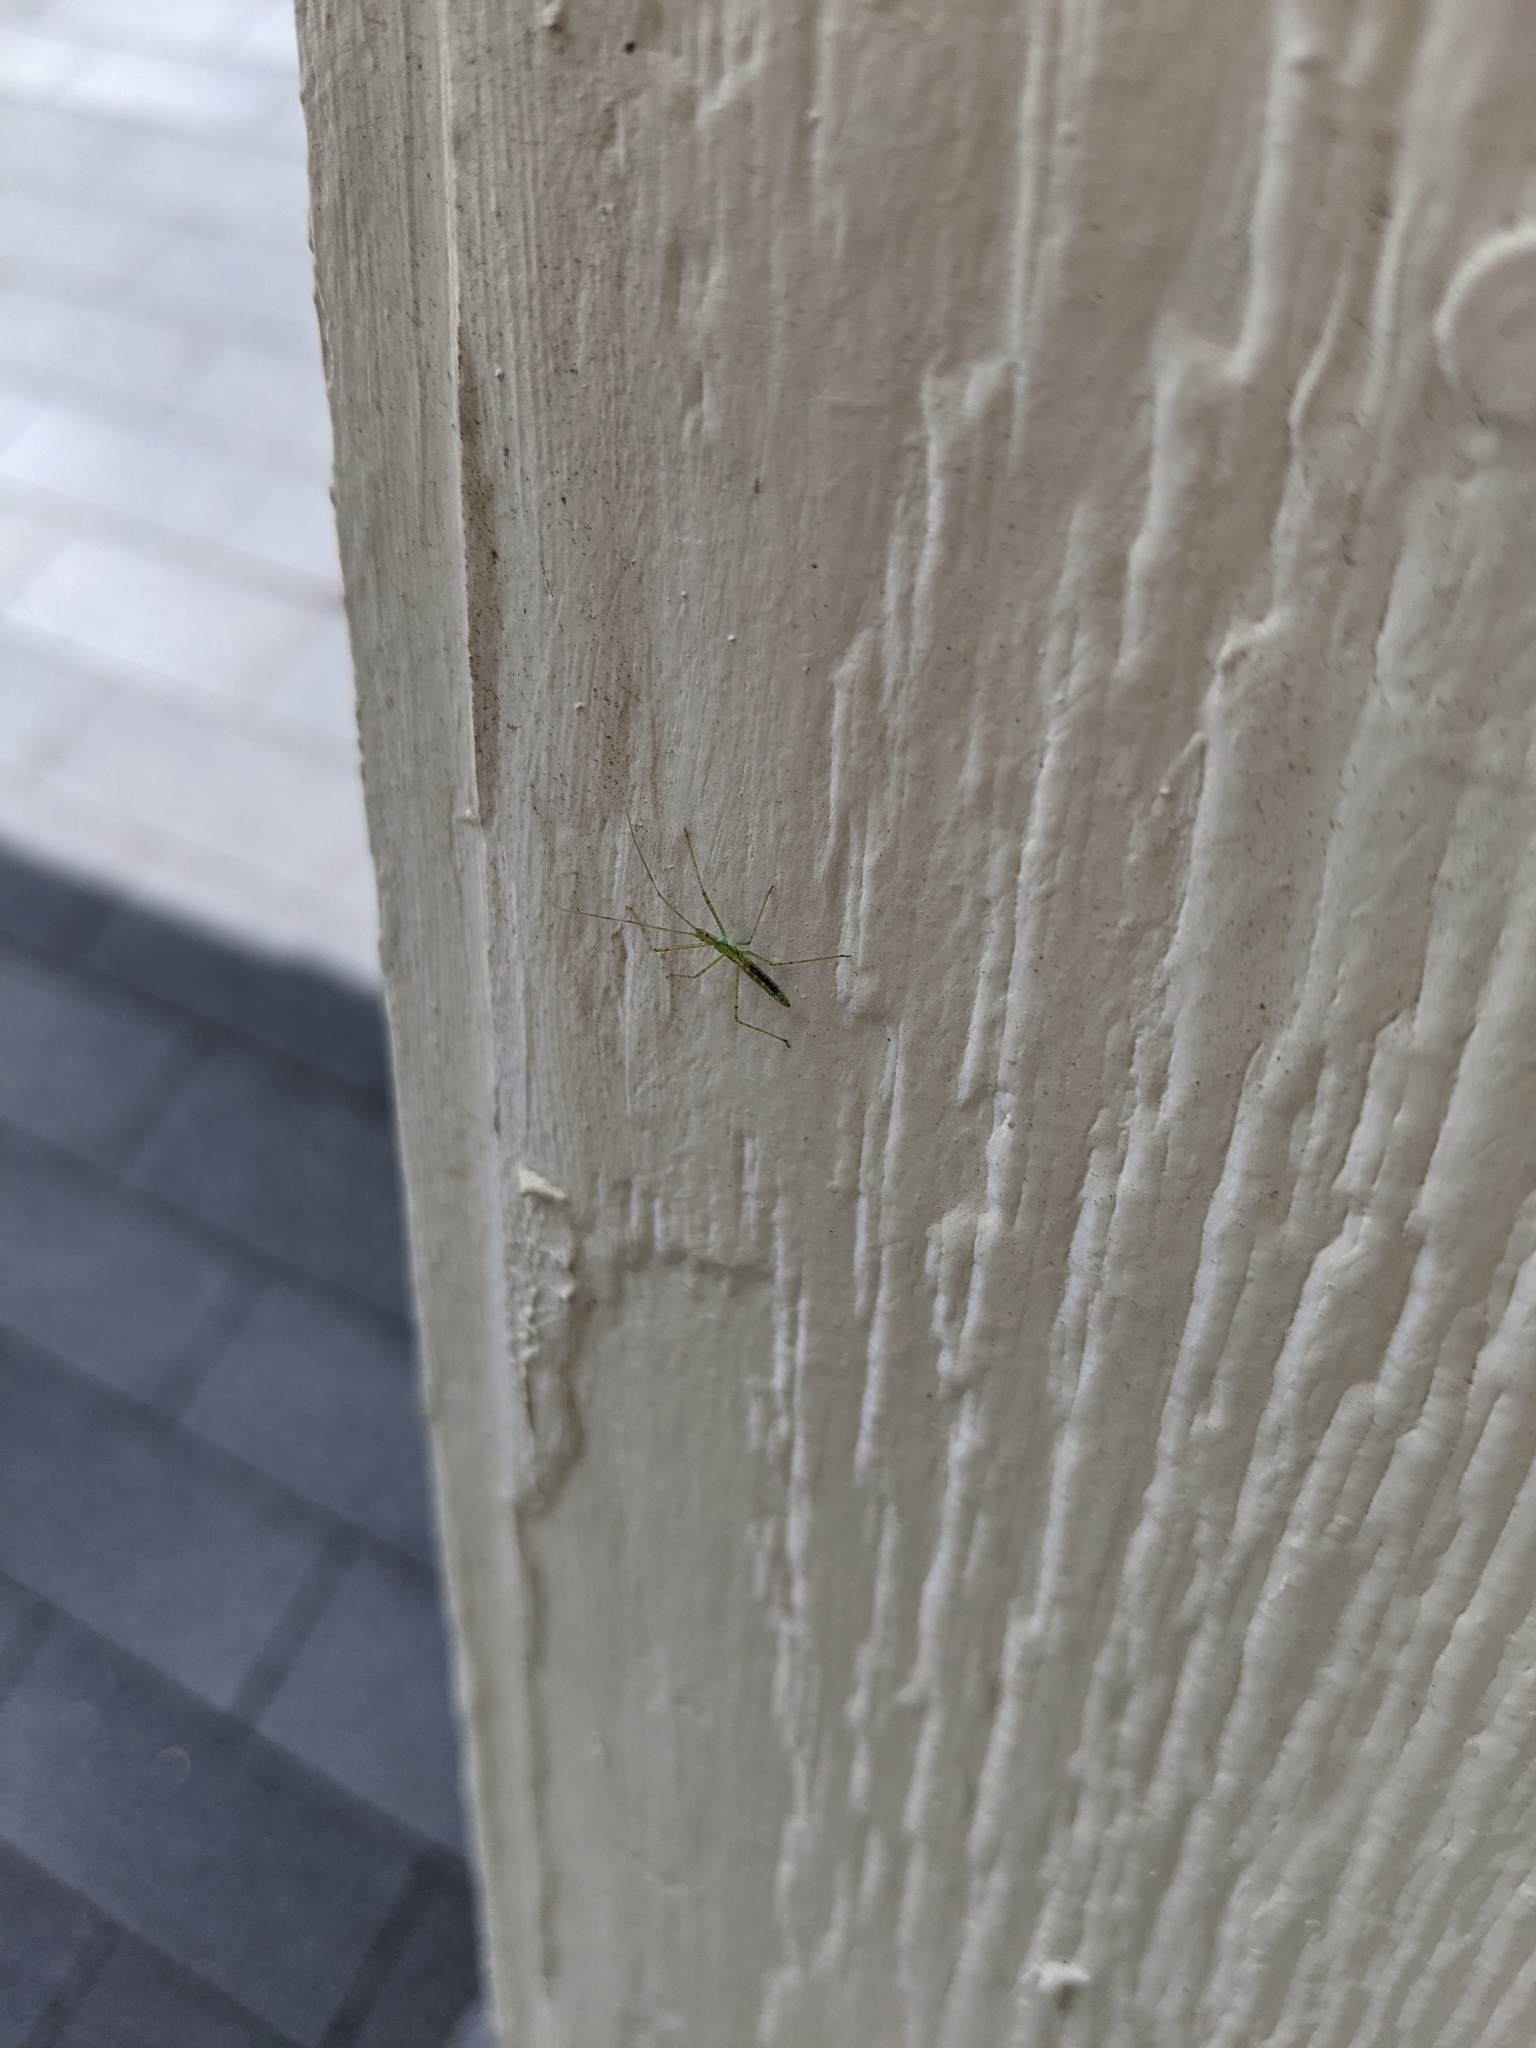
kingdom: Animalia
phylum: Arthropoda
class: Insecta
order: Hemiptera
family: Reduviidae
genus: Zelus
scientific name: Zelus luridus
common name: Pale green assassin bug
